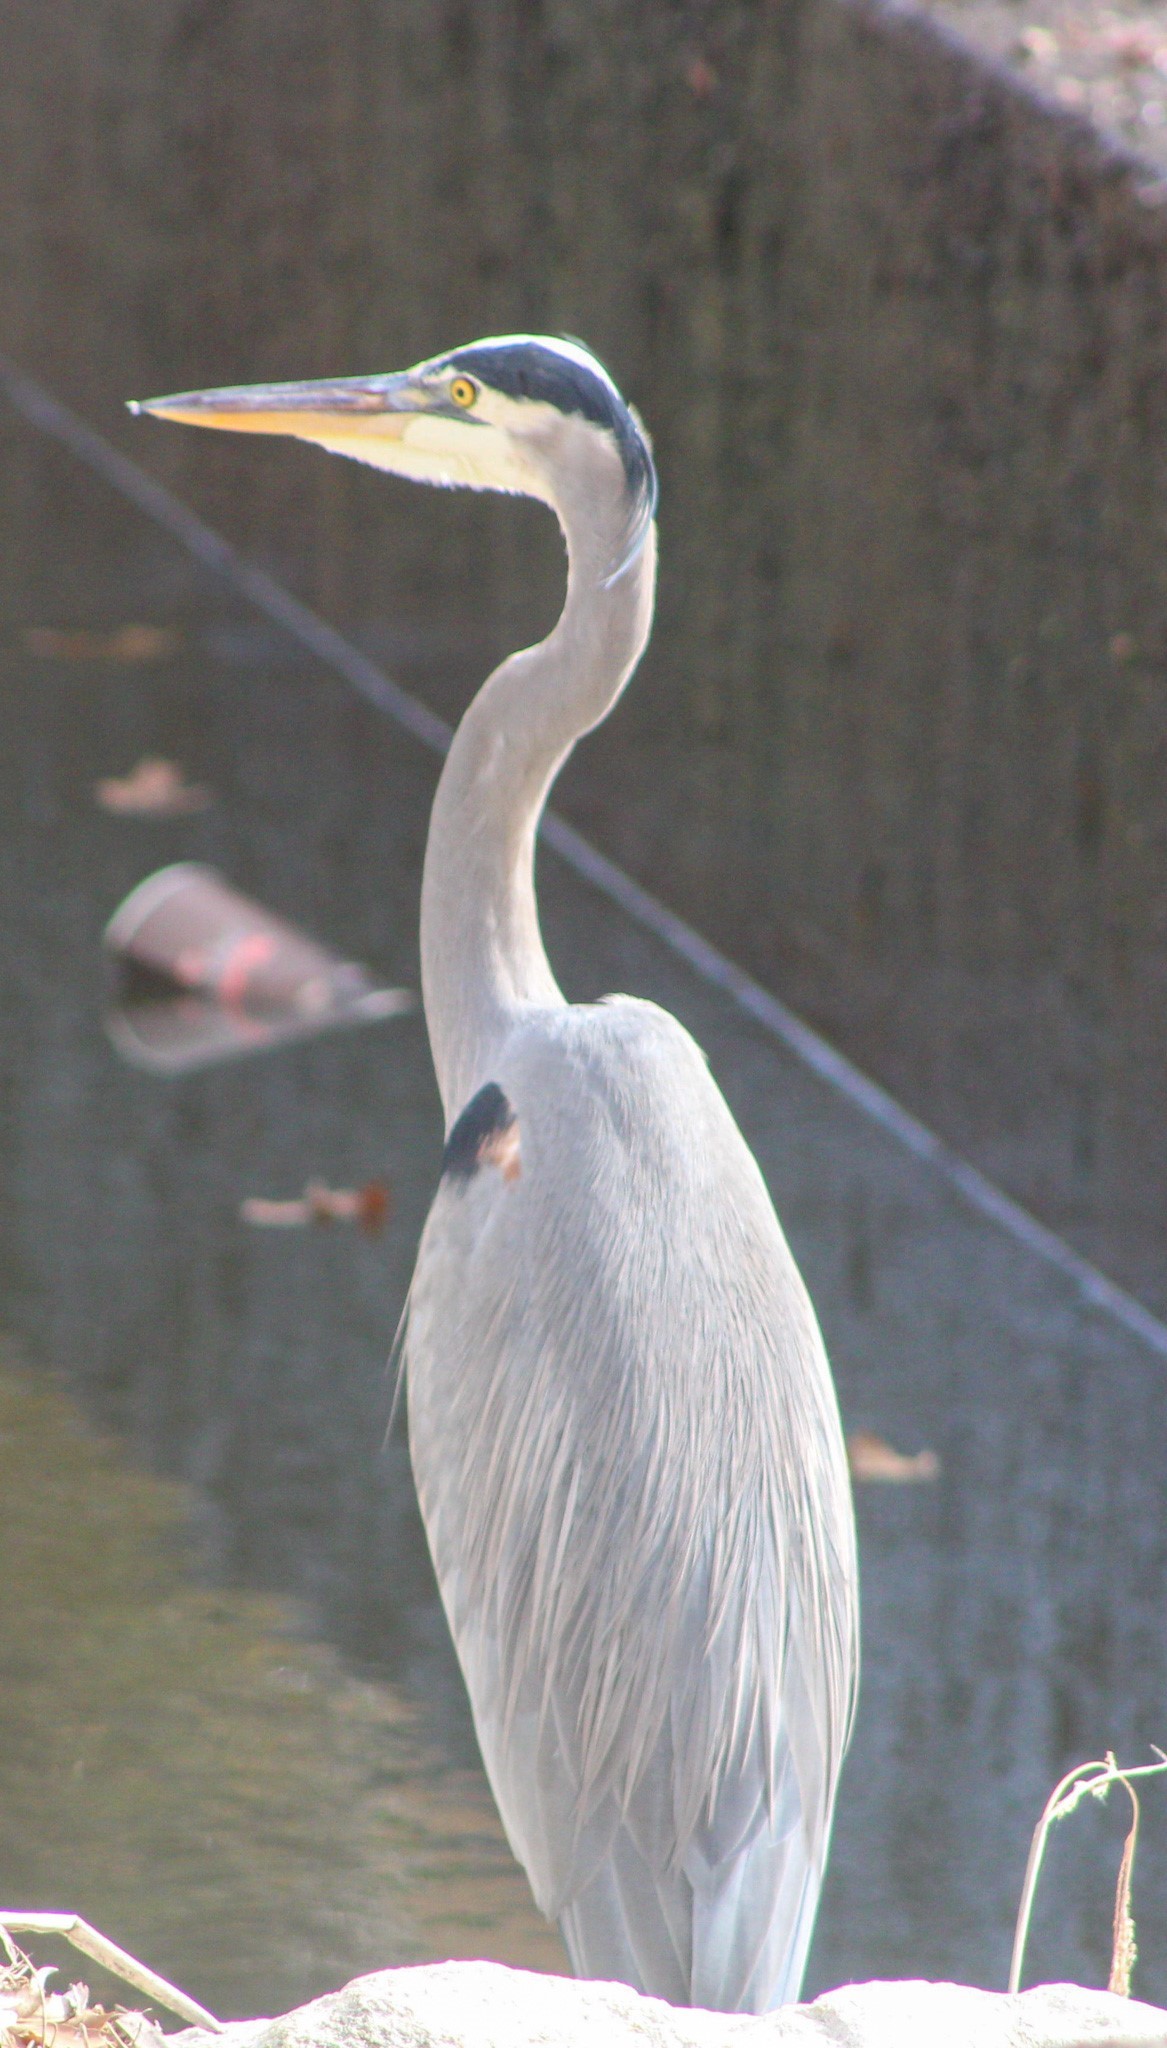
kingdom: Animalia
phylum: Chordata
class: Aves
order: Pelecaniformes
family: Ardeidae
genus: Ardea
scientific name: Ardea herodias
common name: Great blue heron
